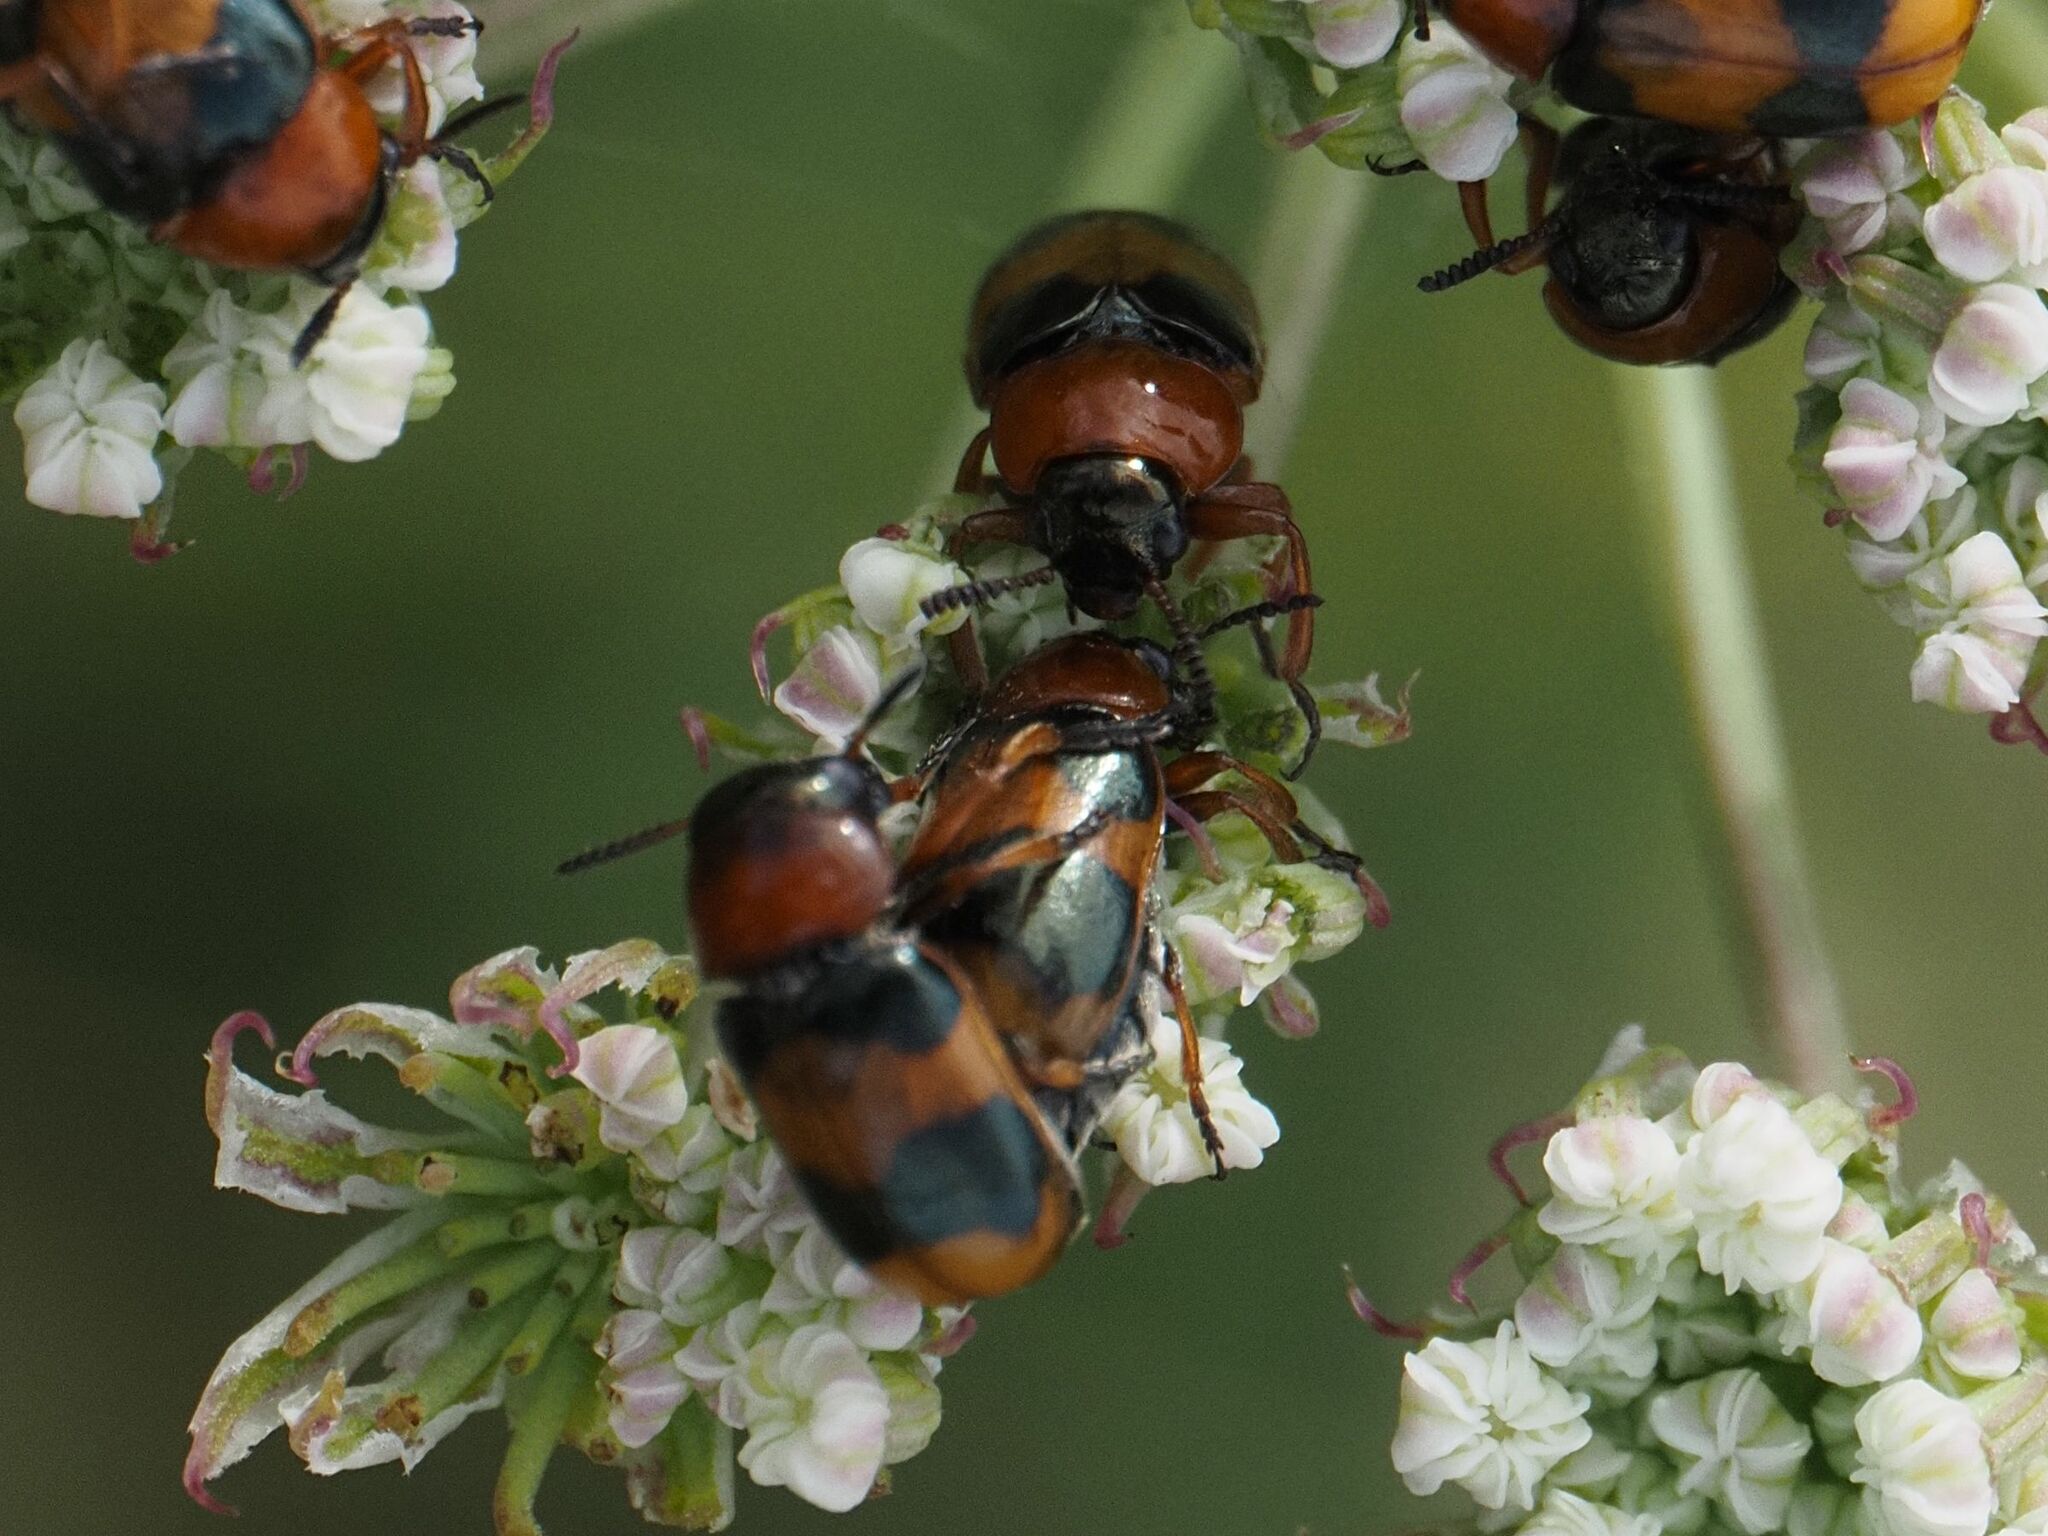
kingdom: Animalia
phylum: Arthropoda
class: Insecta
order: Coleoptera
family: Chrysomelidae
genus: Coptocephala
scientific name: Coptocephala unifasciata
